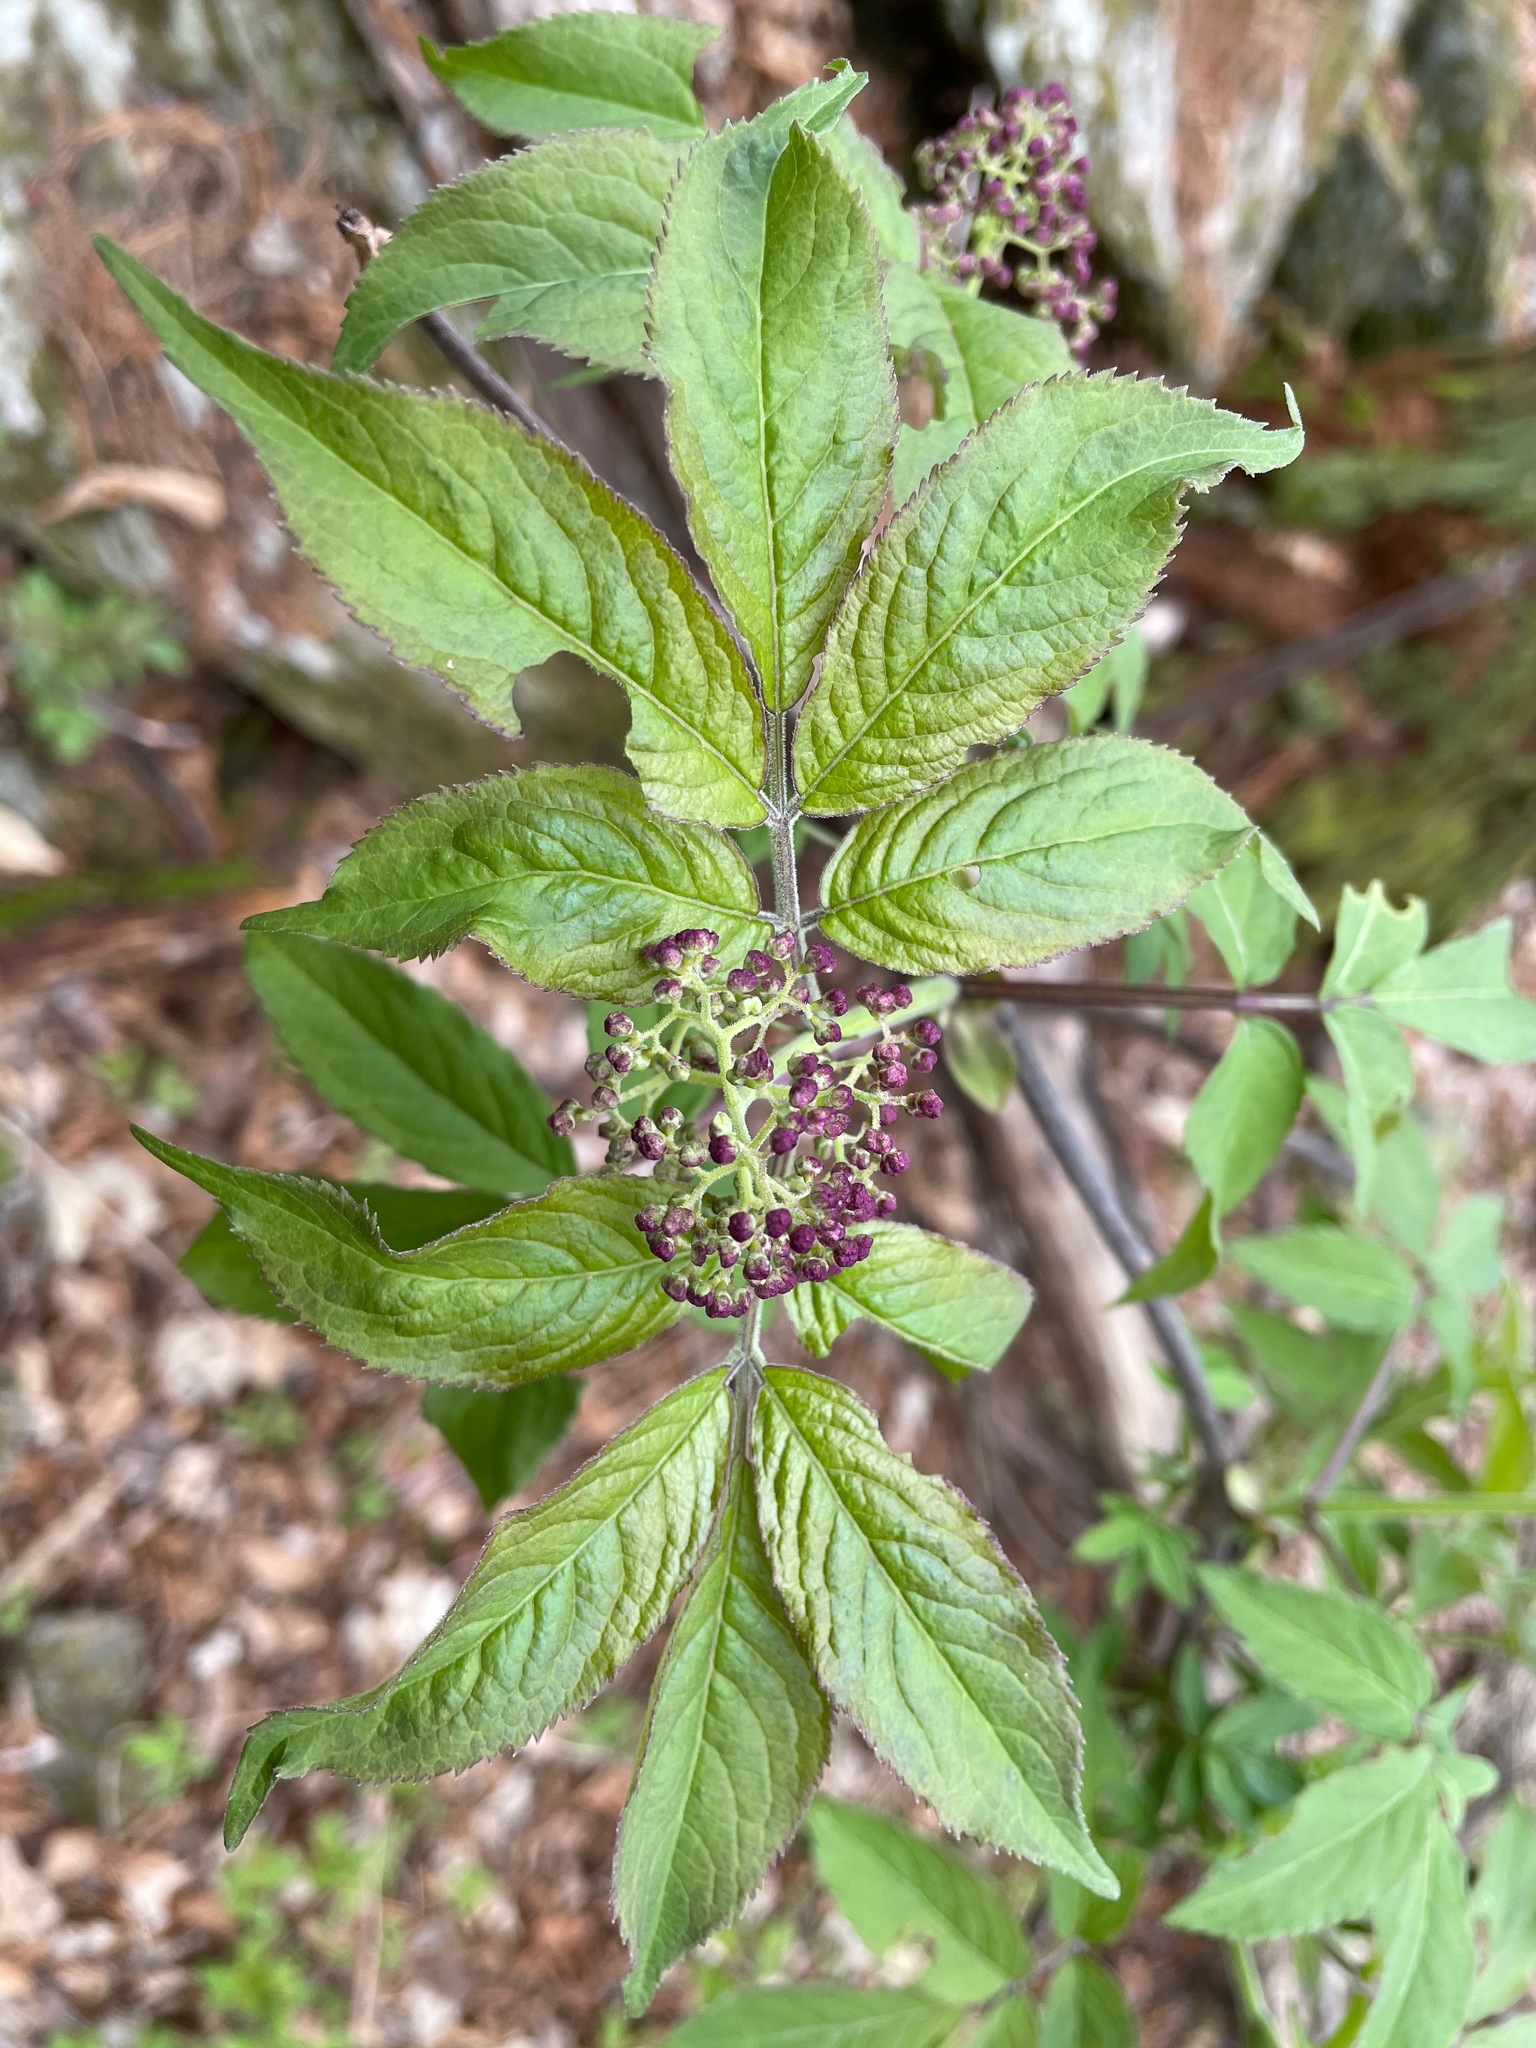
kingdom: Plantae
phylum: Tracheophyta
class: Magnoliopsida
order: Dipsacales
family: Viburnaceae
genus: Sambucus
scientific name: Sambucus racemosa
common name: Red-berried elder
